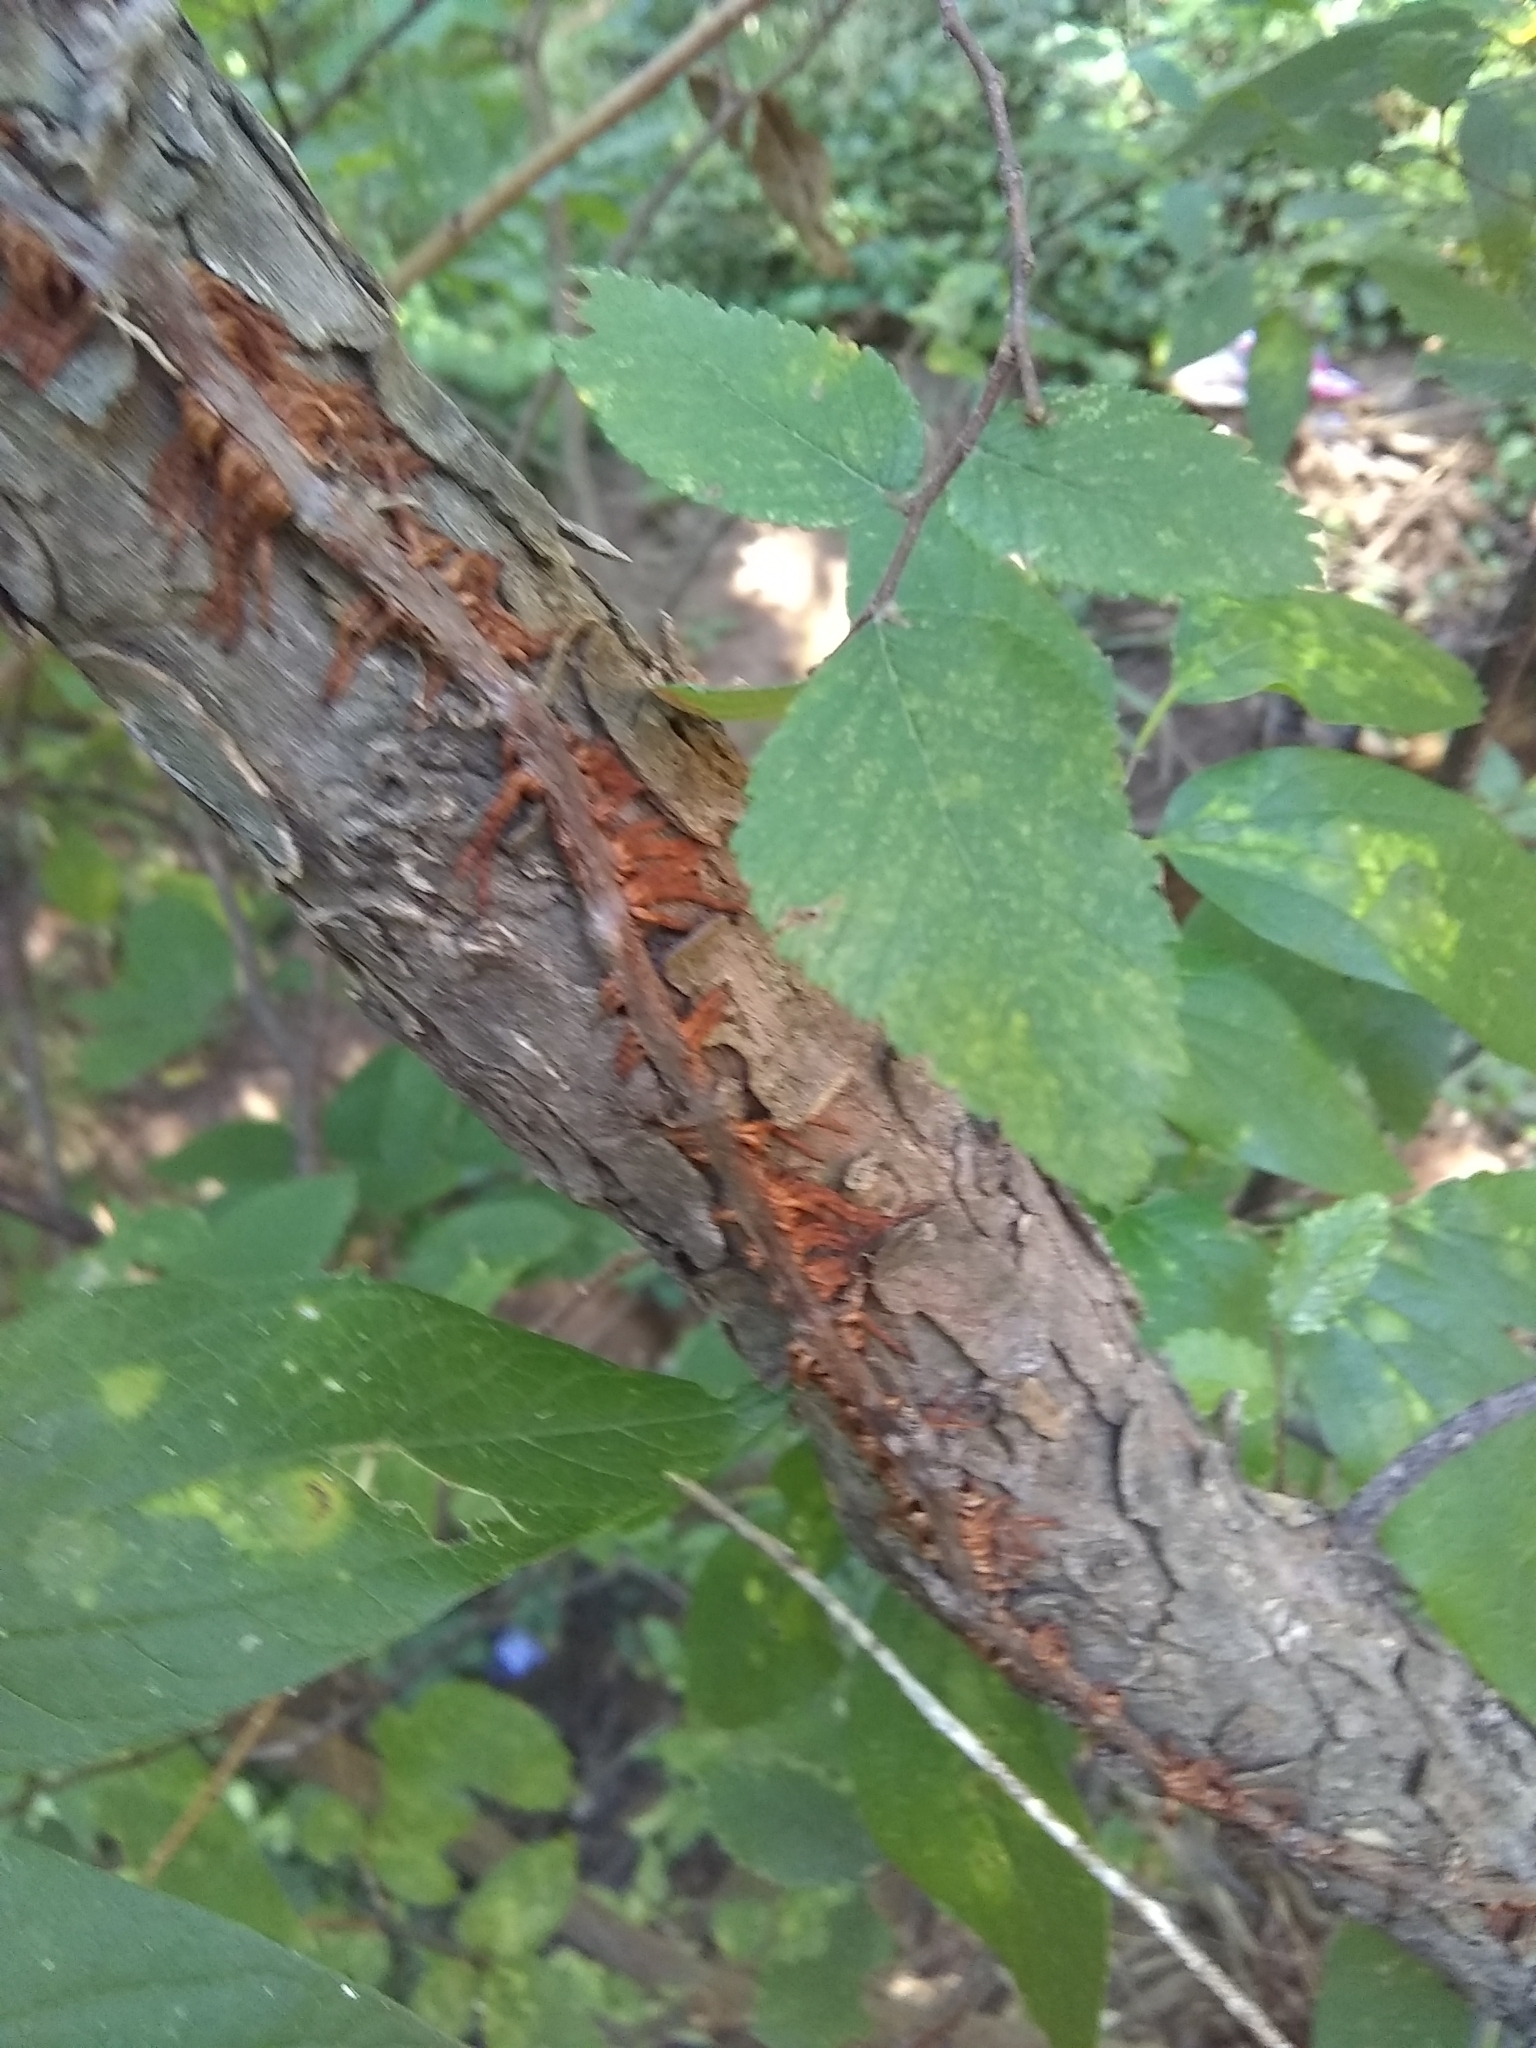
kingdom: Plantae
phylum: Tracheophyta
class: Magnoliopsida
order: Vitales
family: Vitaceae
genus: Parthenocissus
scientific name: Parthenocissus quinquefolia
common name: Virginia-creeper
